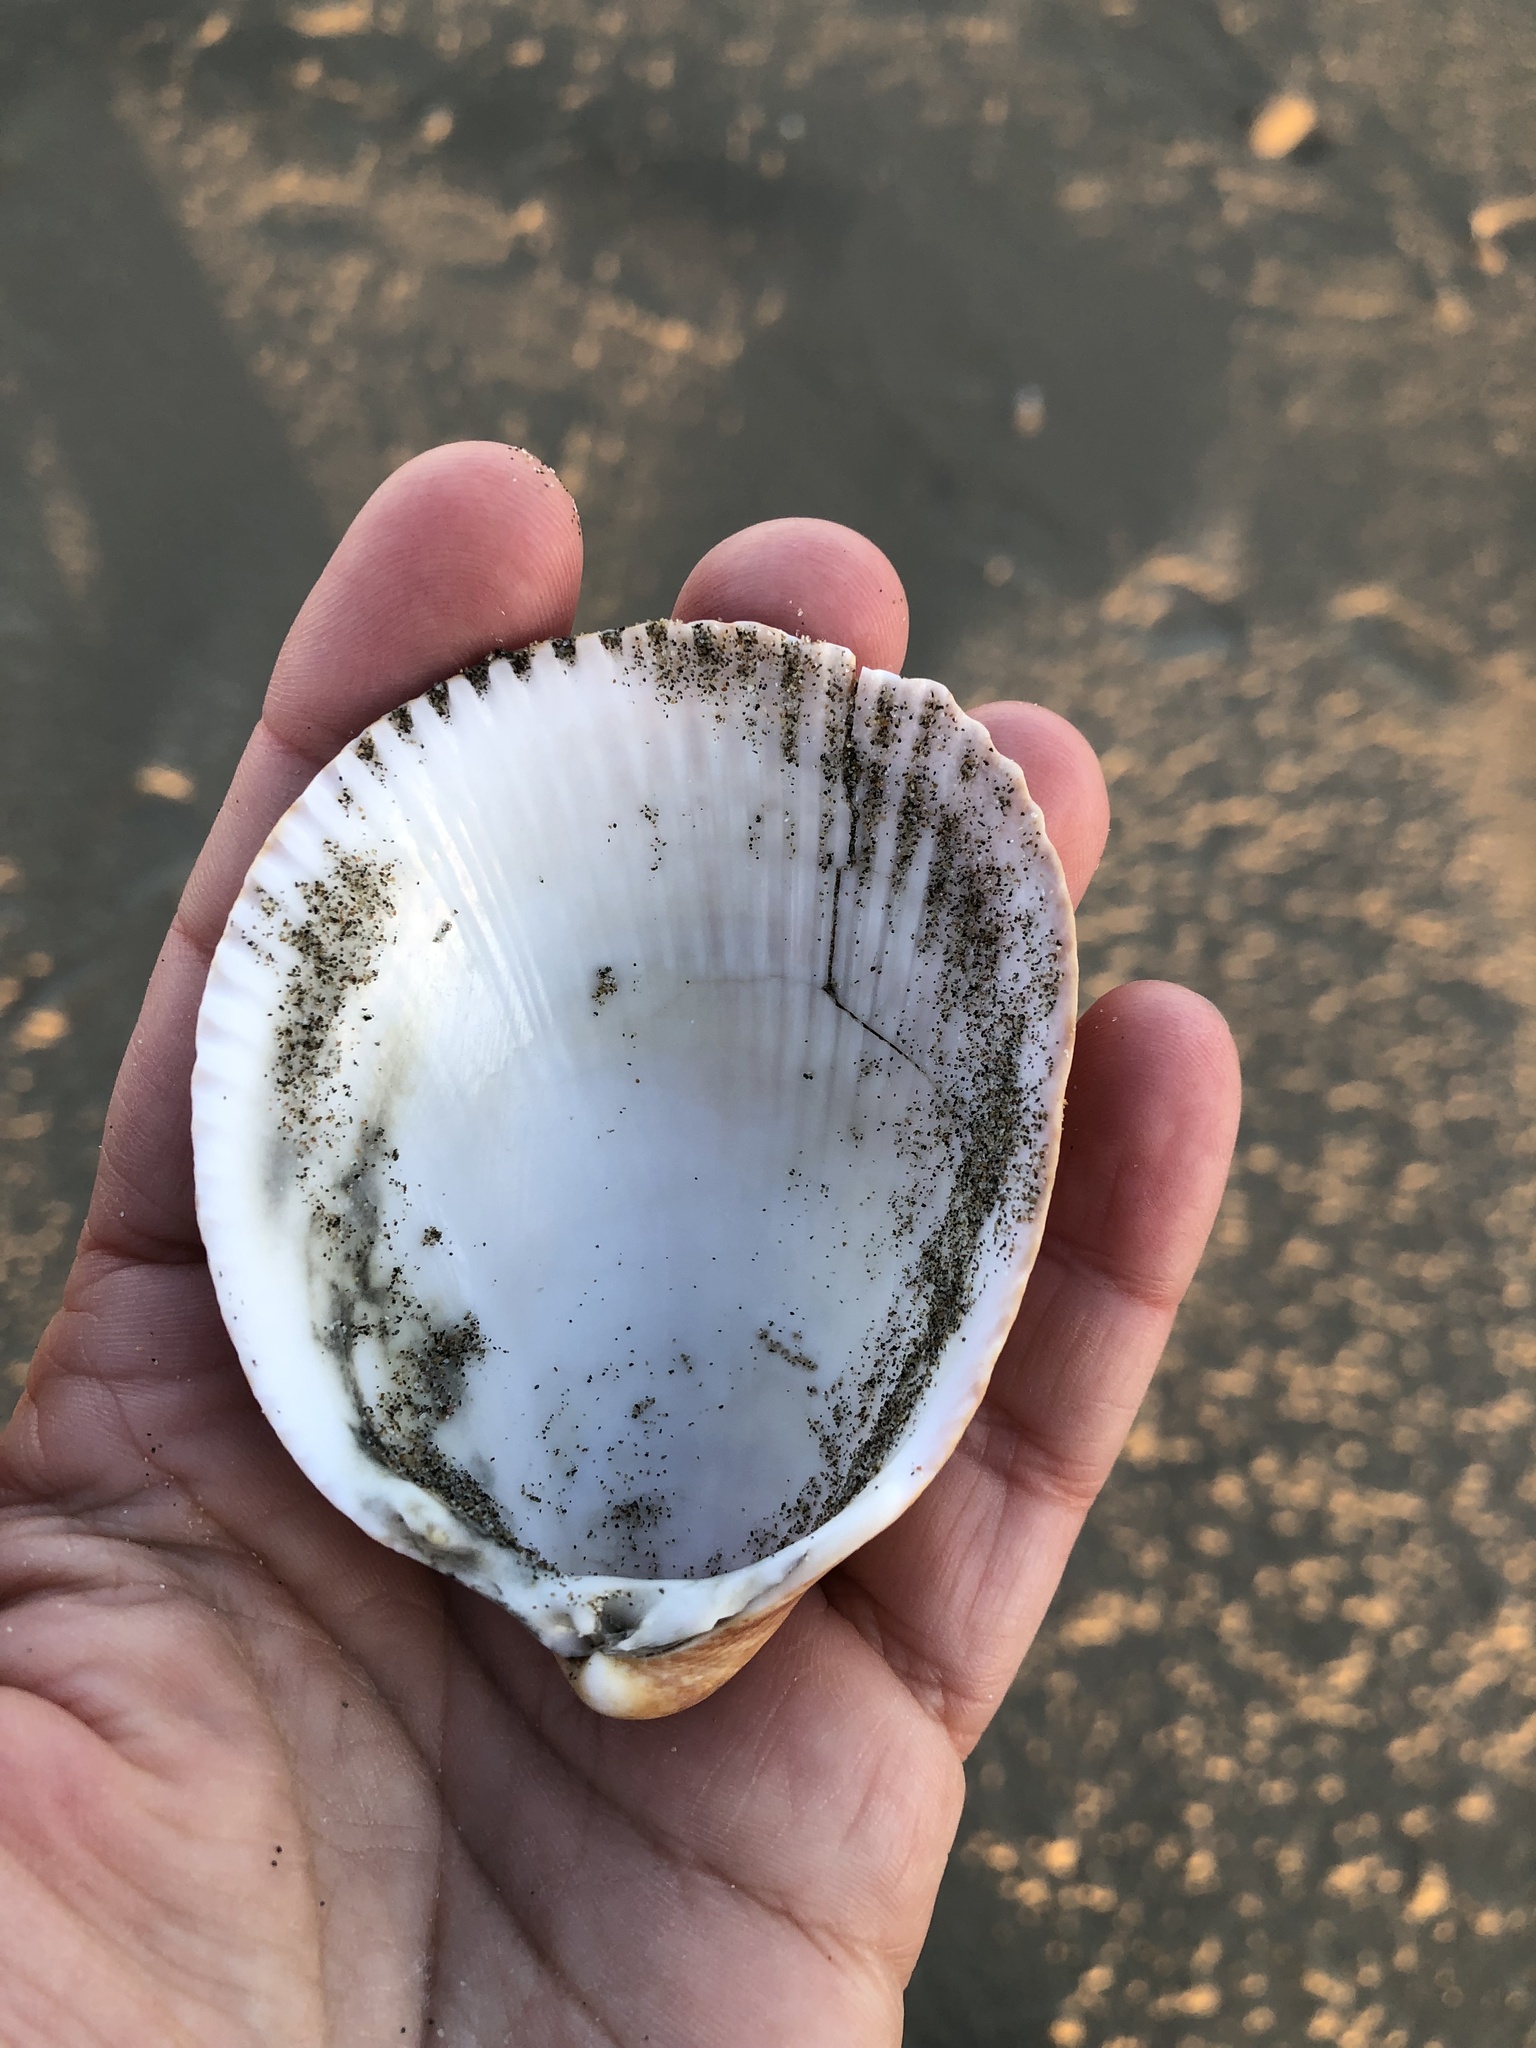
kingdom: Animalia
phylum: Mollusca
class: Bivalvia
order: Cardiida
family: Cardiidae
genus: Laevicardium
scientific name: Laevicardium oblongum
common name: Oblong cockle
